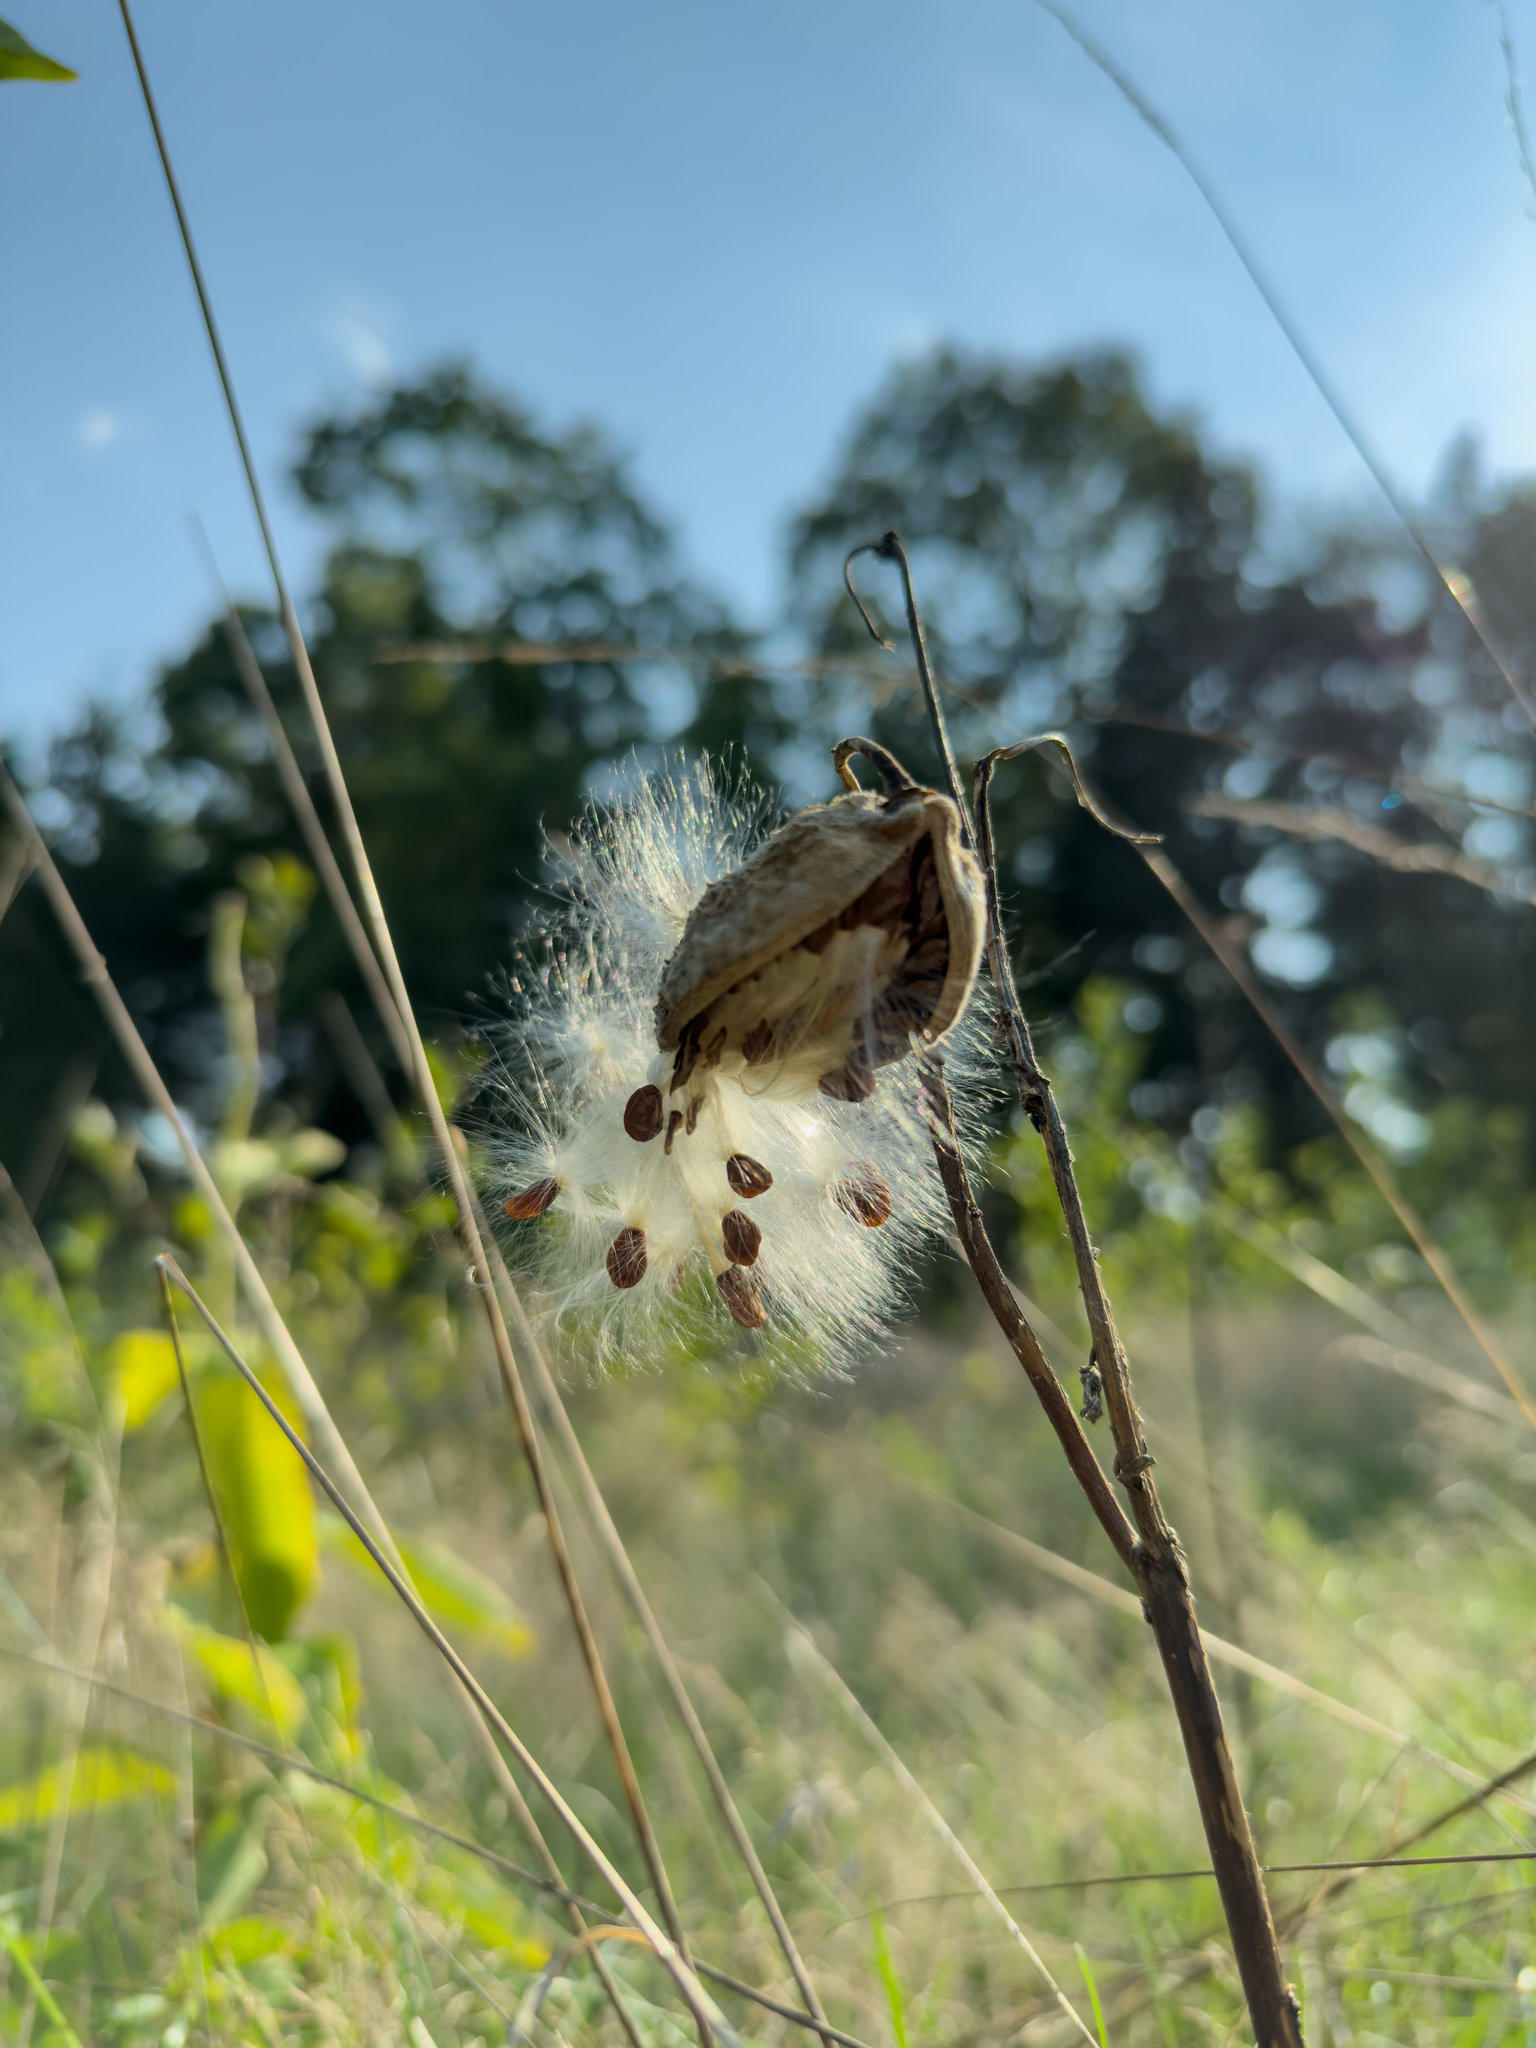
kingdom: Plantae
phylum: Tracheophyta
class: Magnoliopsida
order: Gentianales
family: Apocynaceae
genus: Asclepias
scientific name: Asclepias syriaca
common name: Common milkweed
